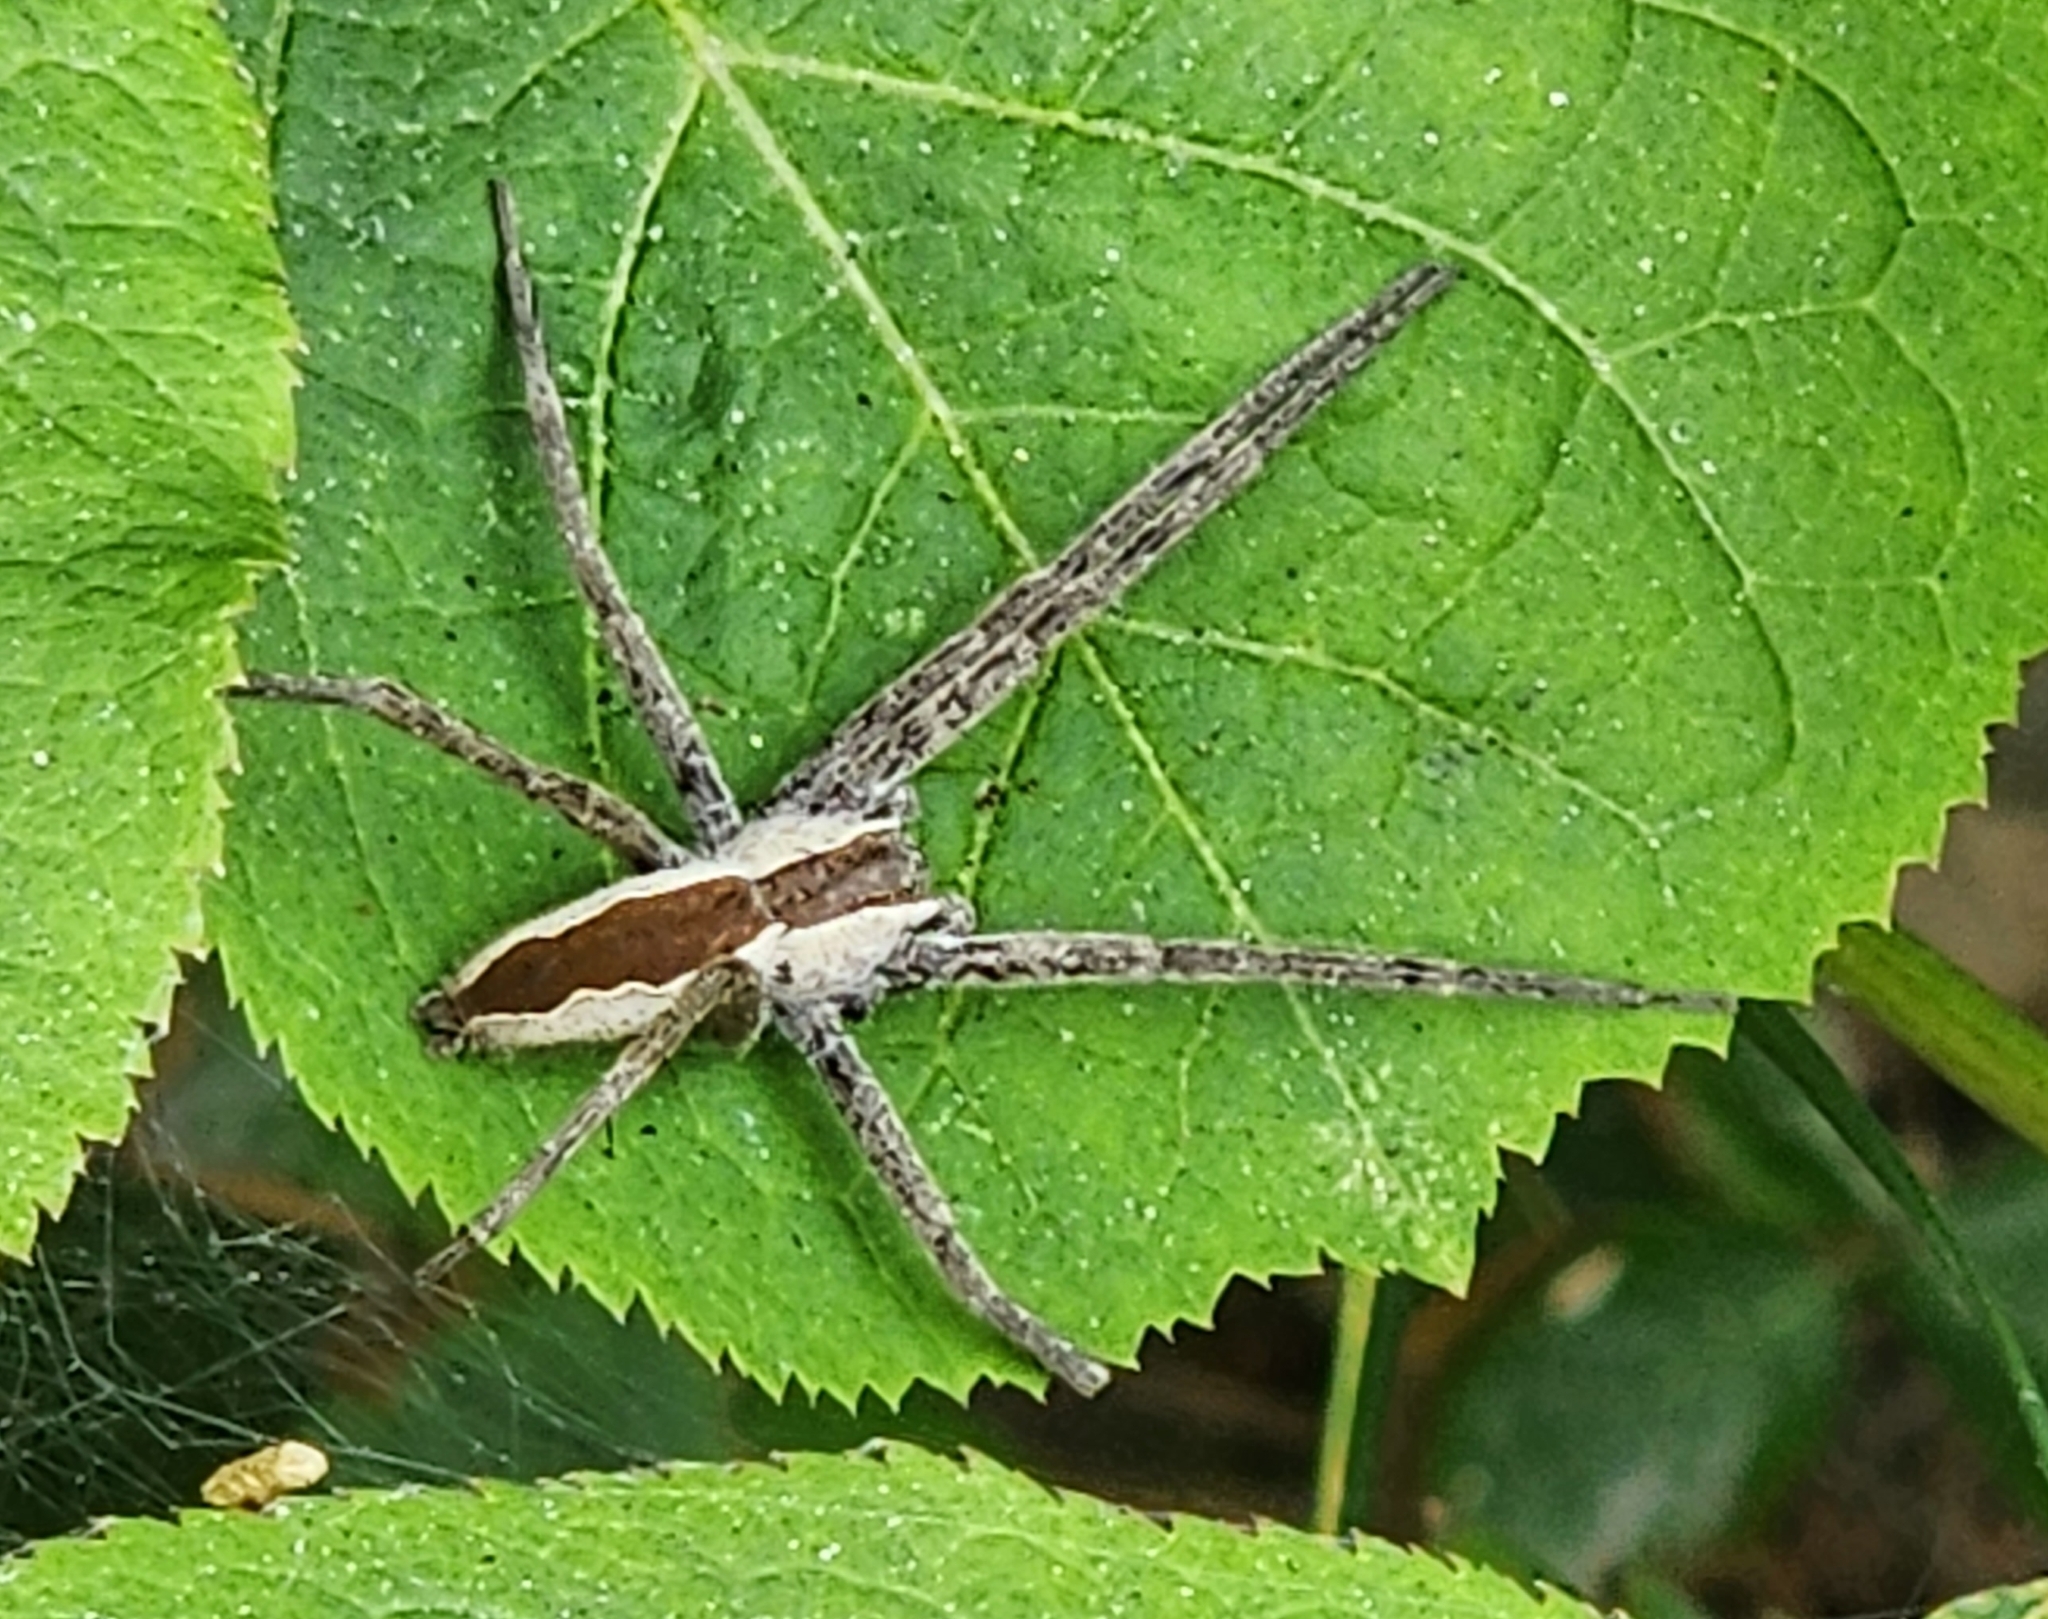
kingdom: Animalia
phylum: Arthropoda
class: Arachnida
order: Araneae
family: Pisauridae
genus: Pisaurina
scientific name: Pisaurina mira
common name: American nursery web spider
